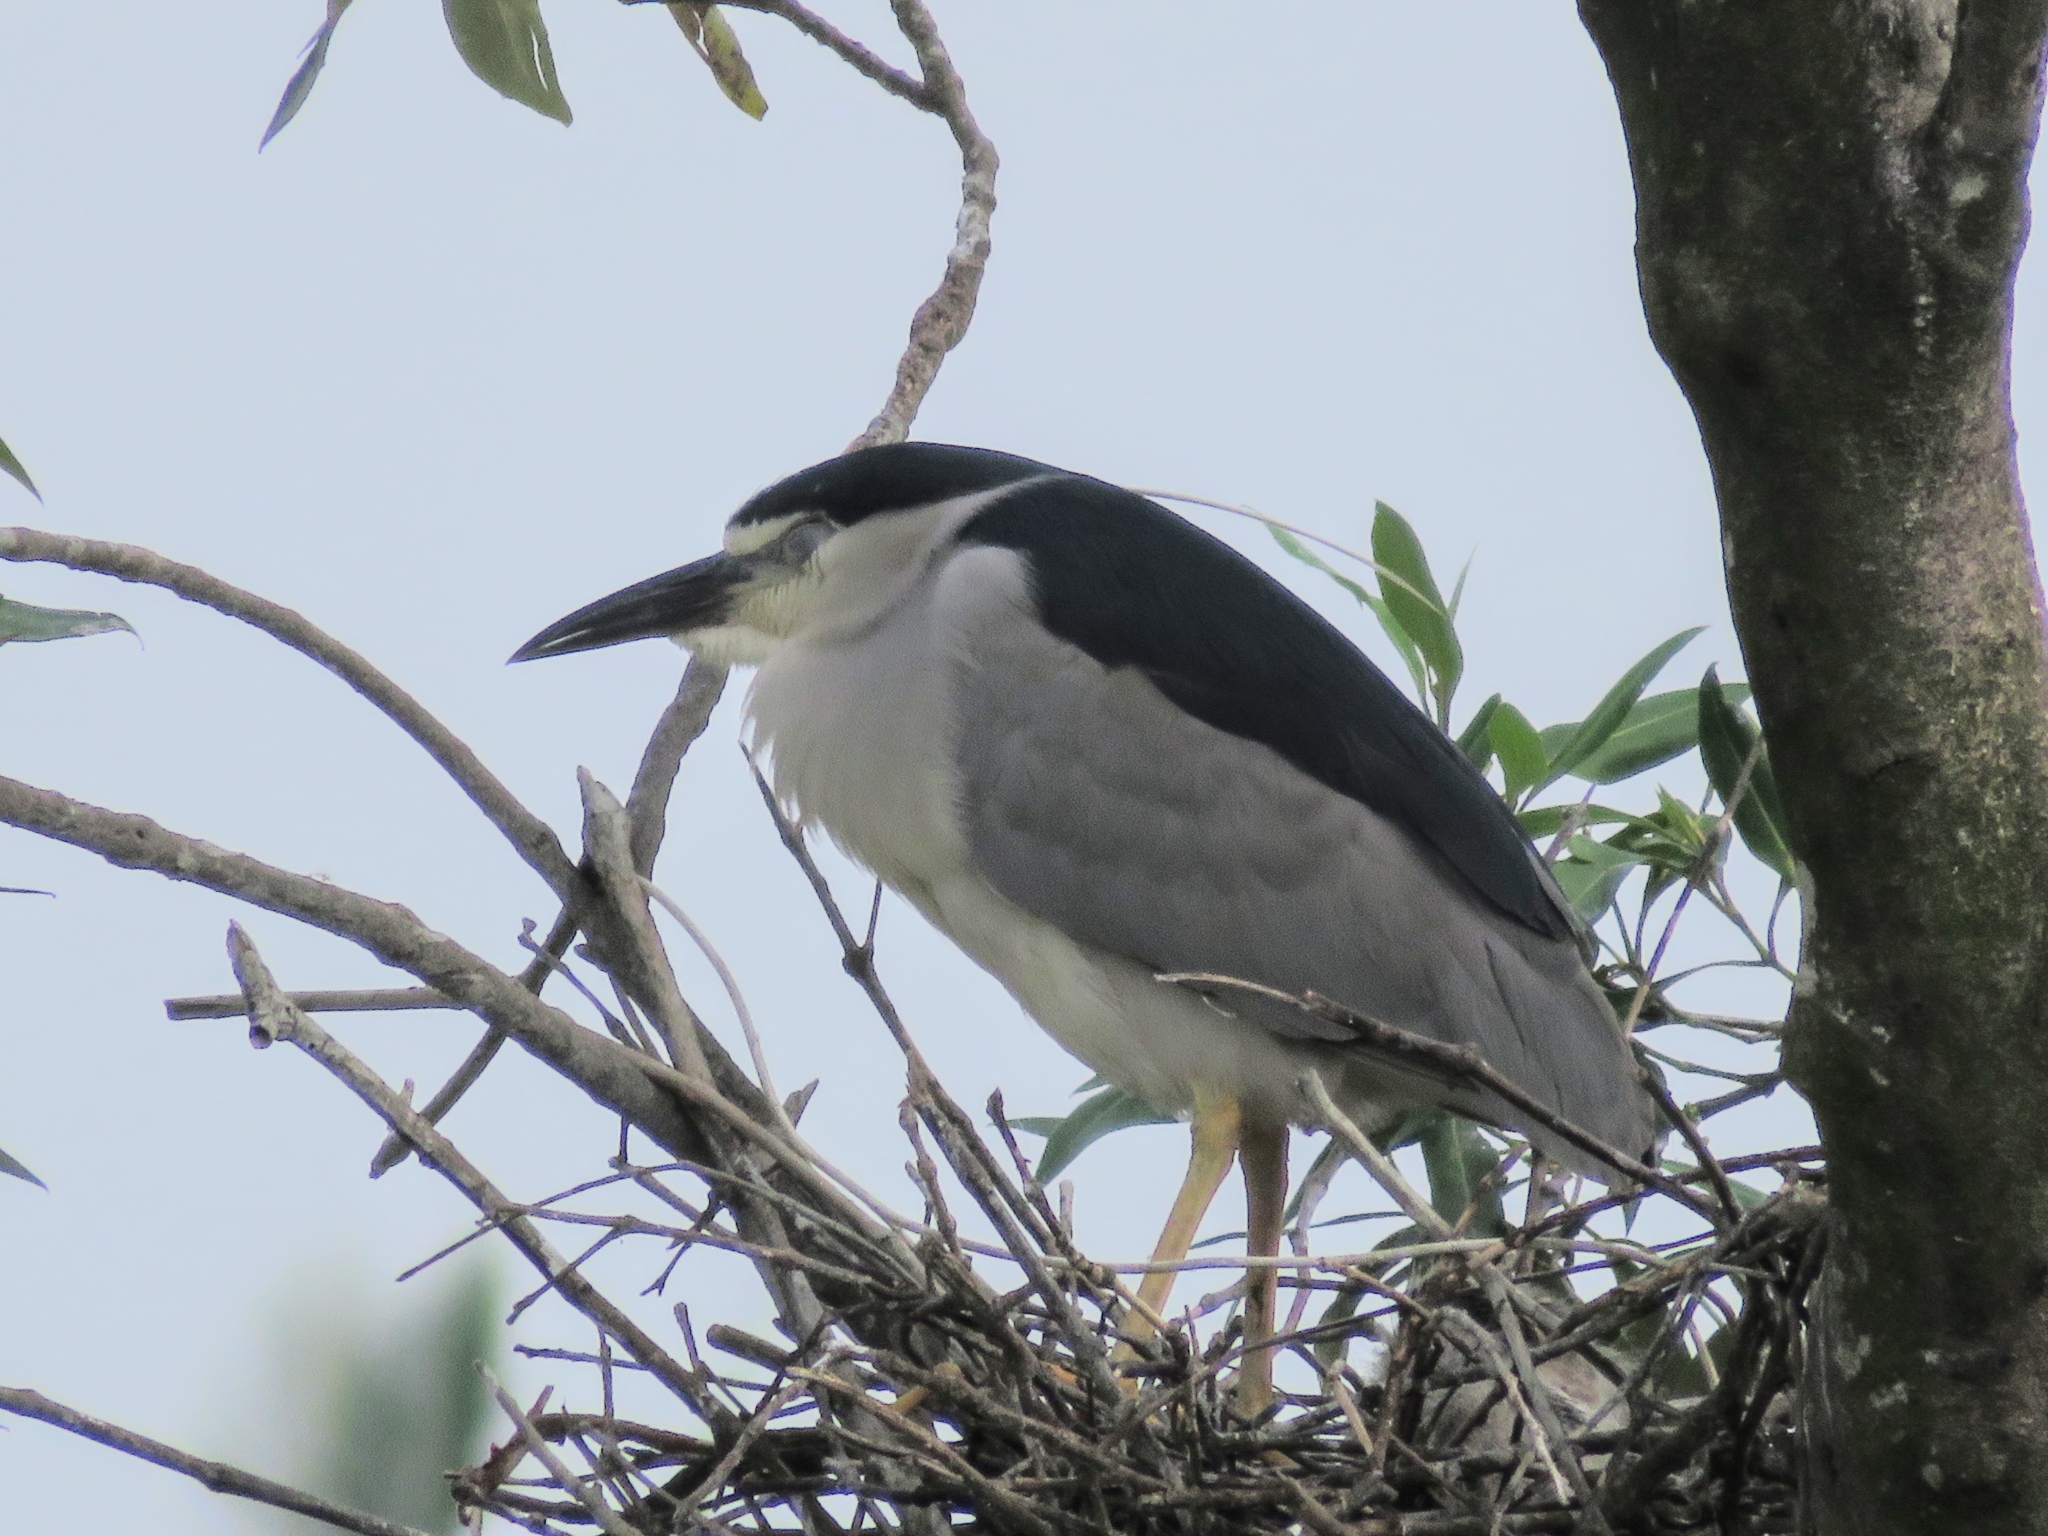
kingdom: Animalia
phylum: Chordata
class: Aves
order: Pelecaniformes
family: Ardeidae
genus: Nycticorax
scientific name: Nycticorax nycticorax
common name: Black-crowned night heron
